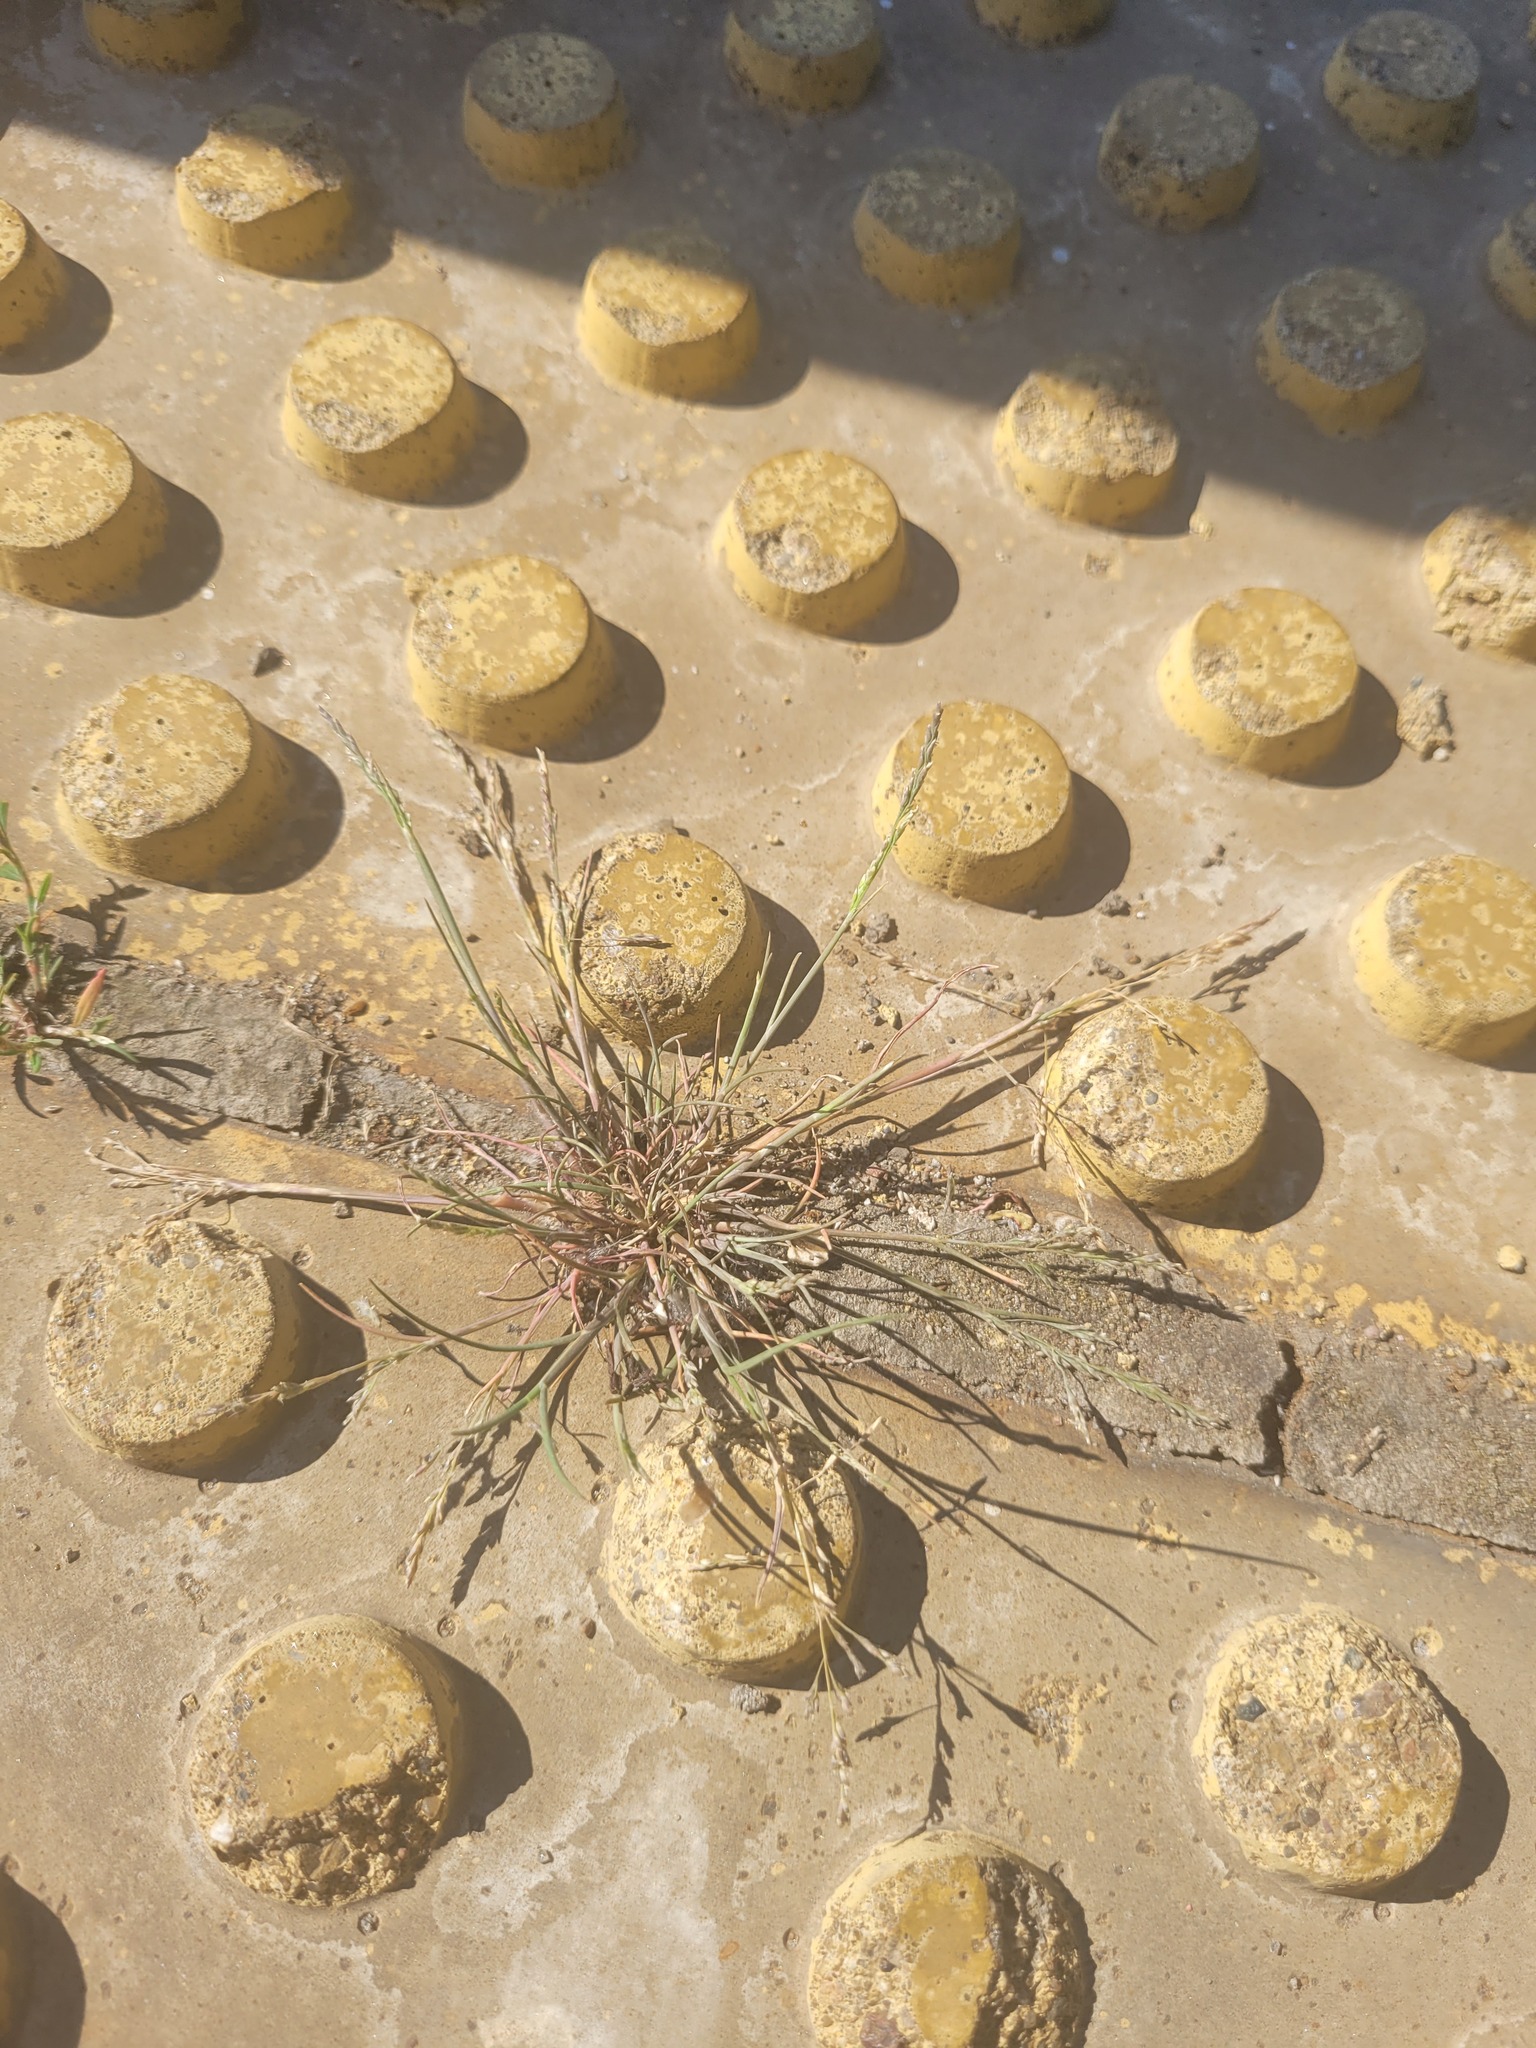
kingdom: Plantae
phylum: Tracheophyta
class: Liliopsida
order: Poales
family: Poaceae
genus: Puccinellia
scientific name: Puccinellia distans
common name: Weeping alkaligrass
